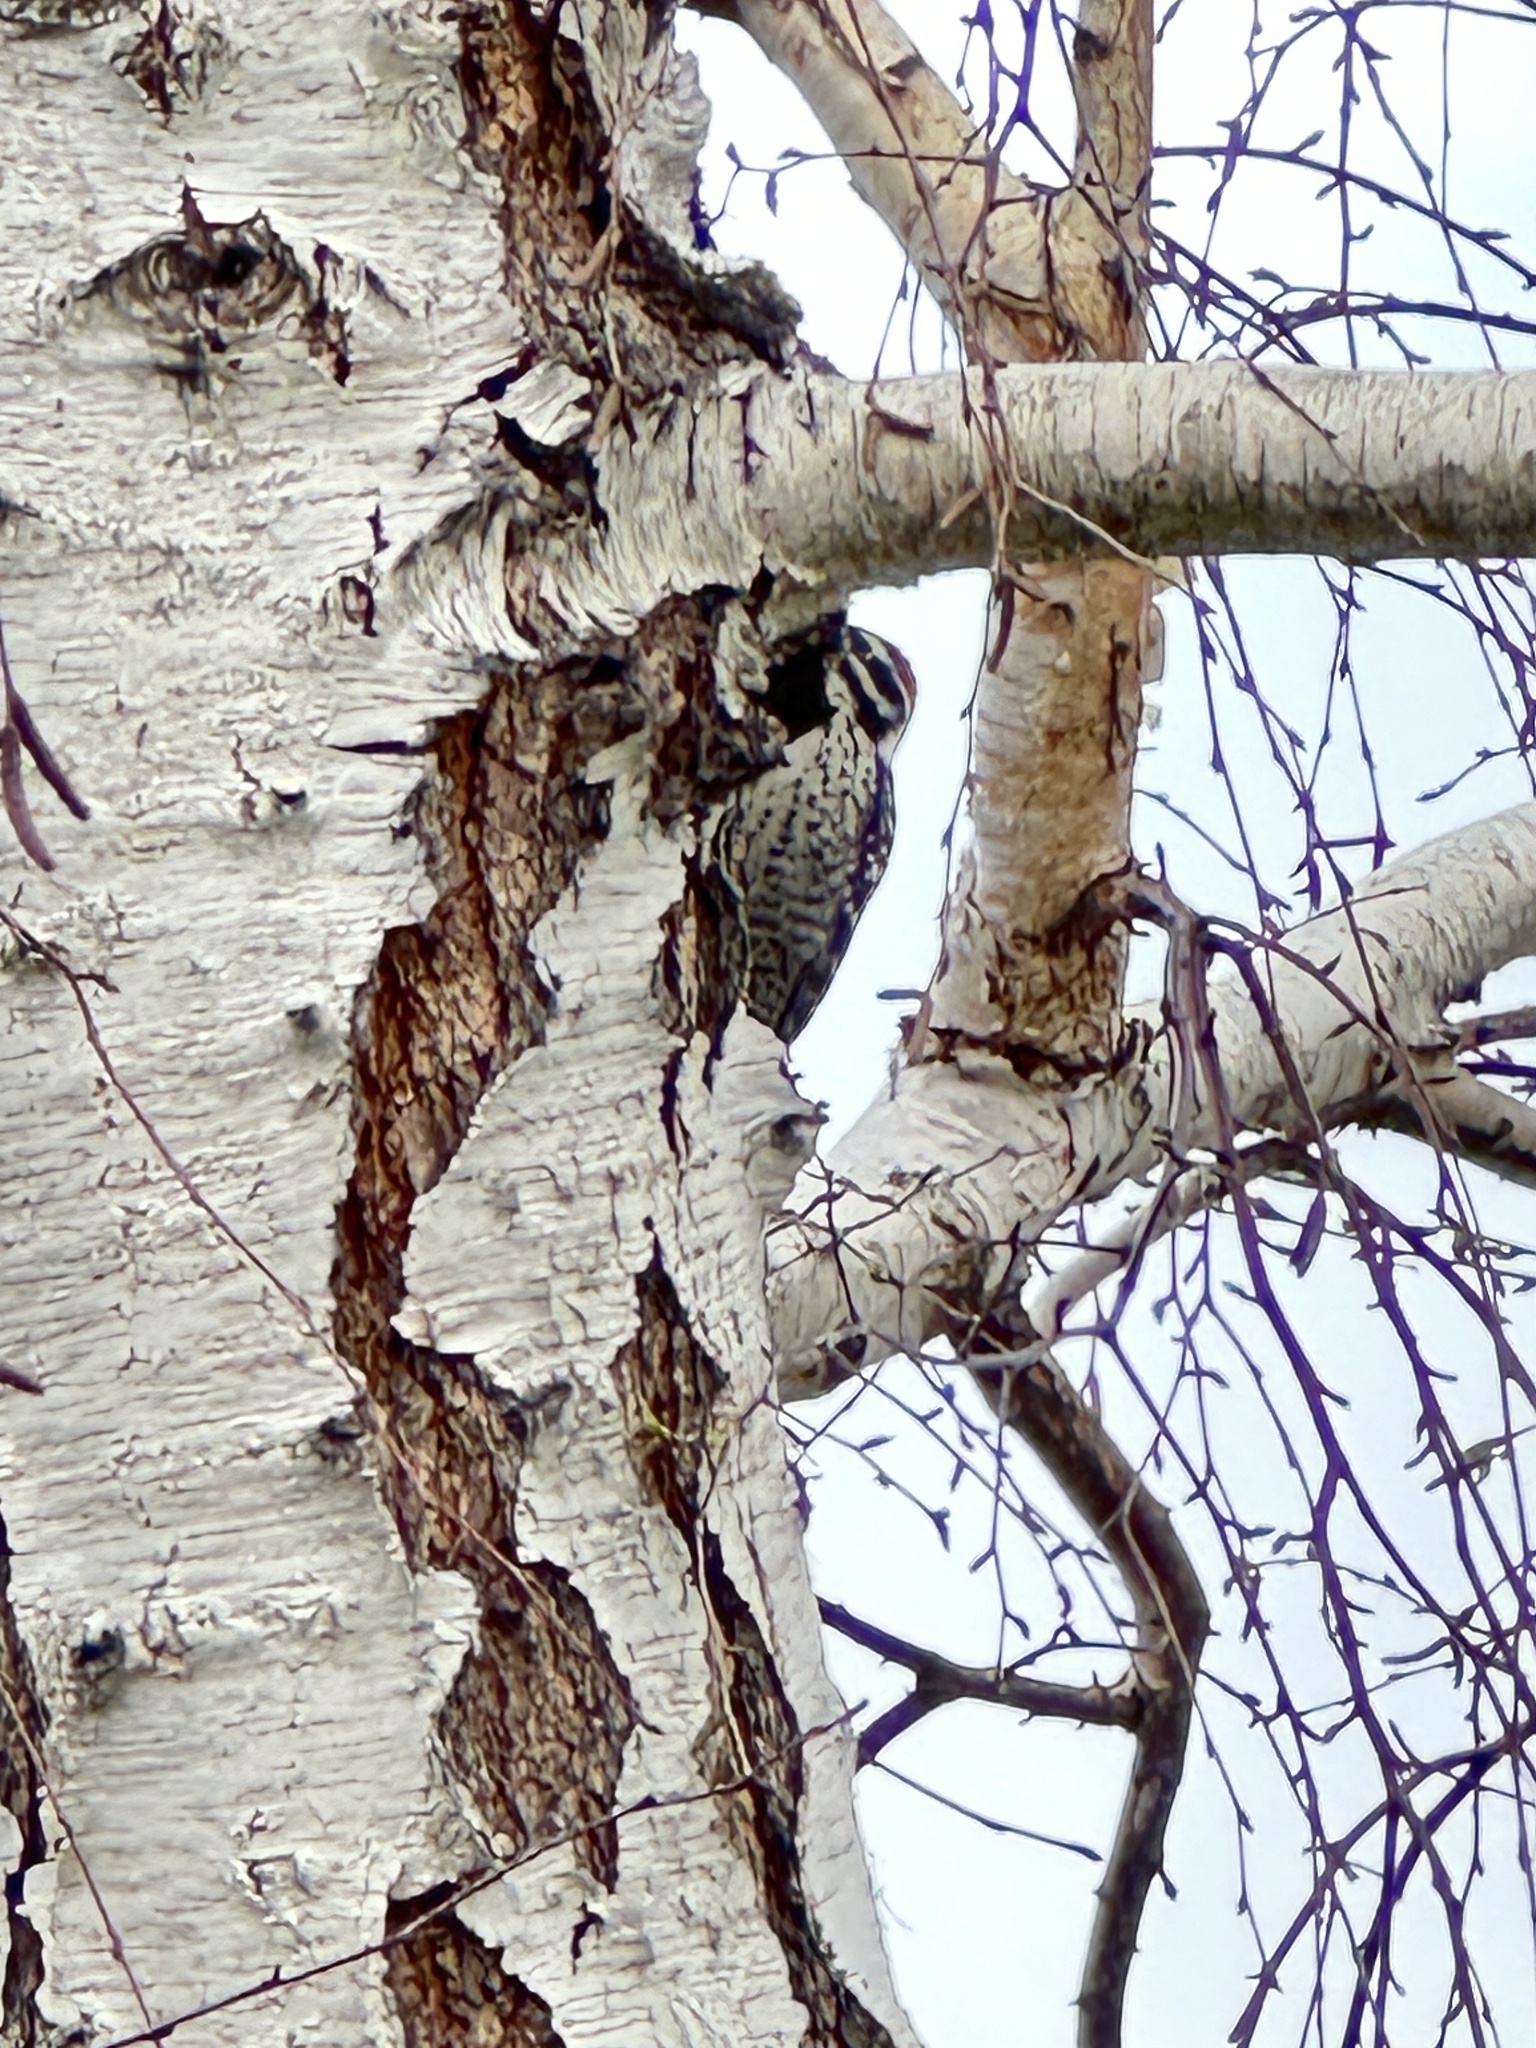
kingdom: Animalia
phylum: Chordata
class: Aves
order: Piciformes
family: Picidae
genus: Dryobates
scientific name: Dryobates nuttallii
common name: Nuttall's woodpecker
